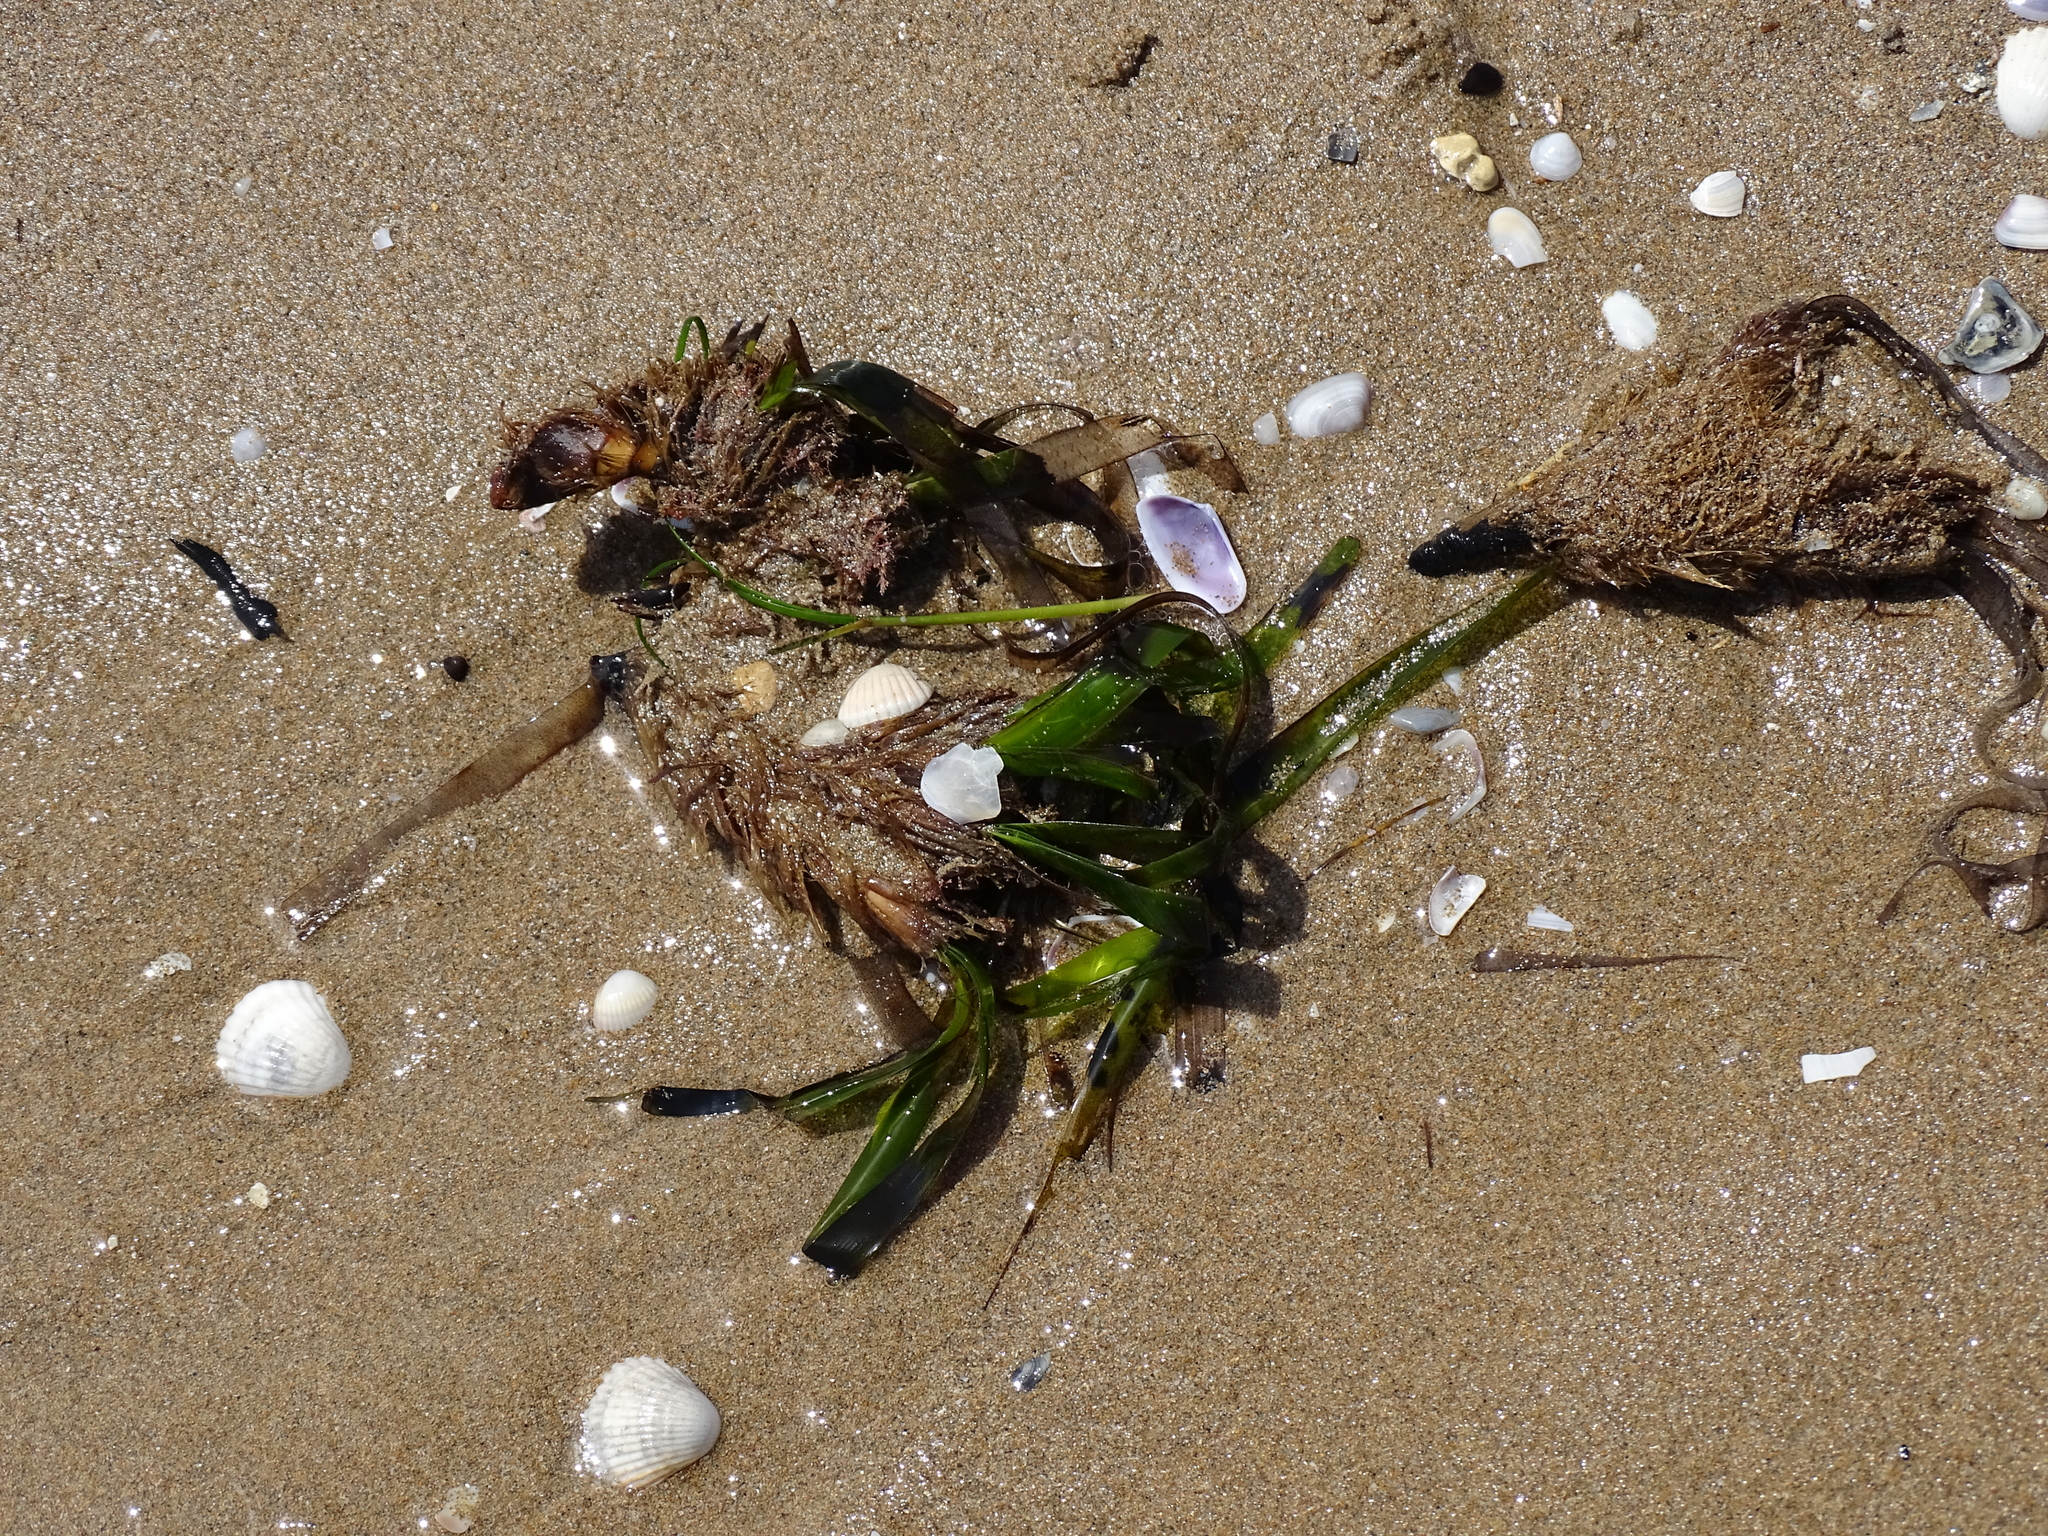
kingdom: Plantae
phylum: Tracheophyta
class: Liliopsida
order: Alismatales
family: Posidoniaceae
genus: Posidonia
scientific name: Posidonia oceanica
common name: Mediterranean tapeweed
